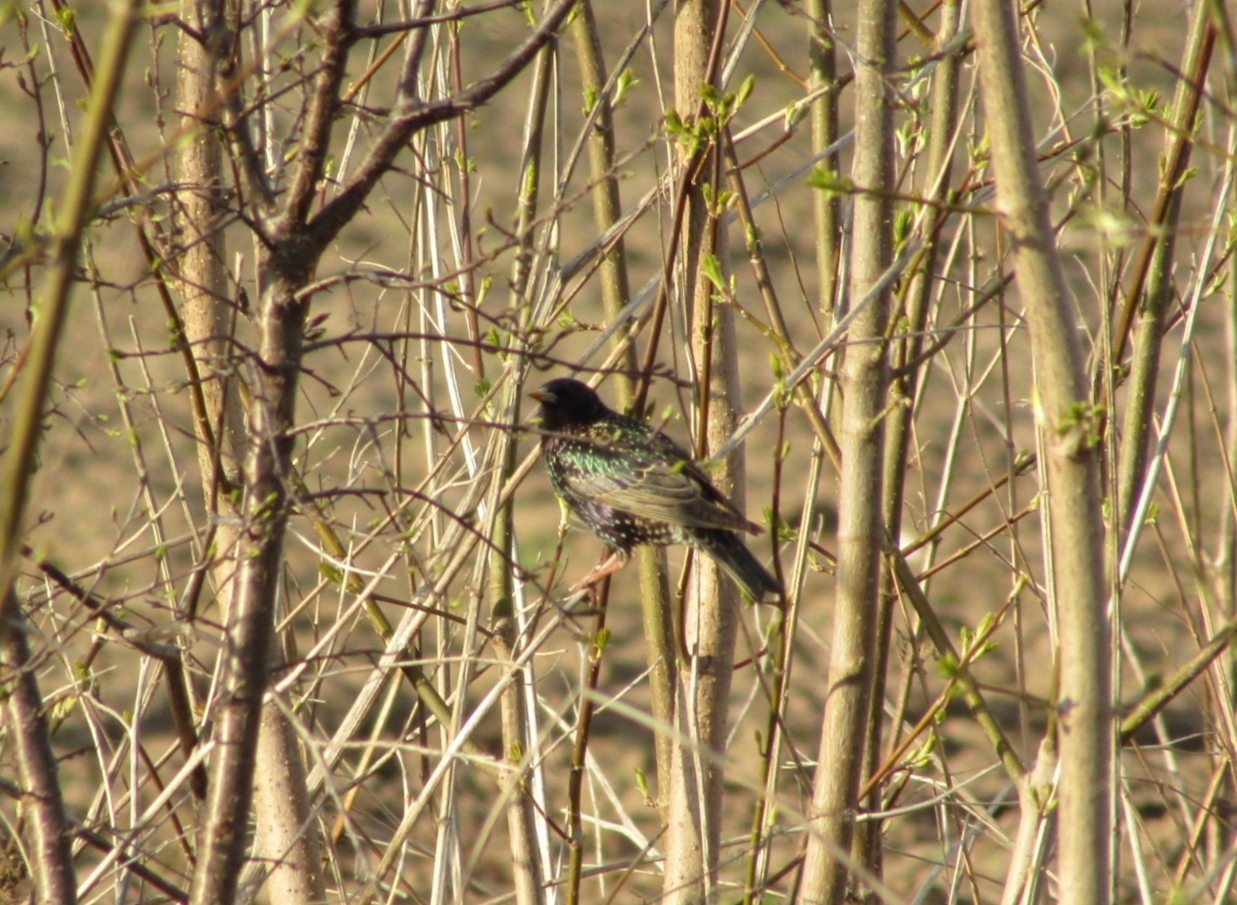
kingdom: Animalia
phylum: Chordata
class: Aves
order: Passeriformes
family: Sturnidae
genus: Sturnus
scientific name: Sturnus vulgaris
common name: Common starling
